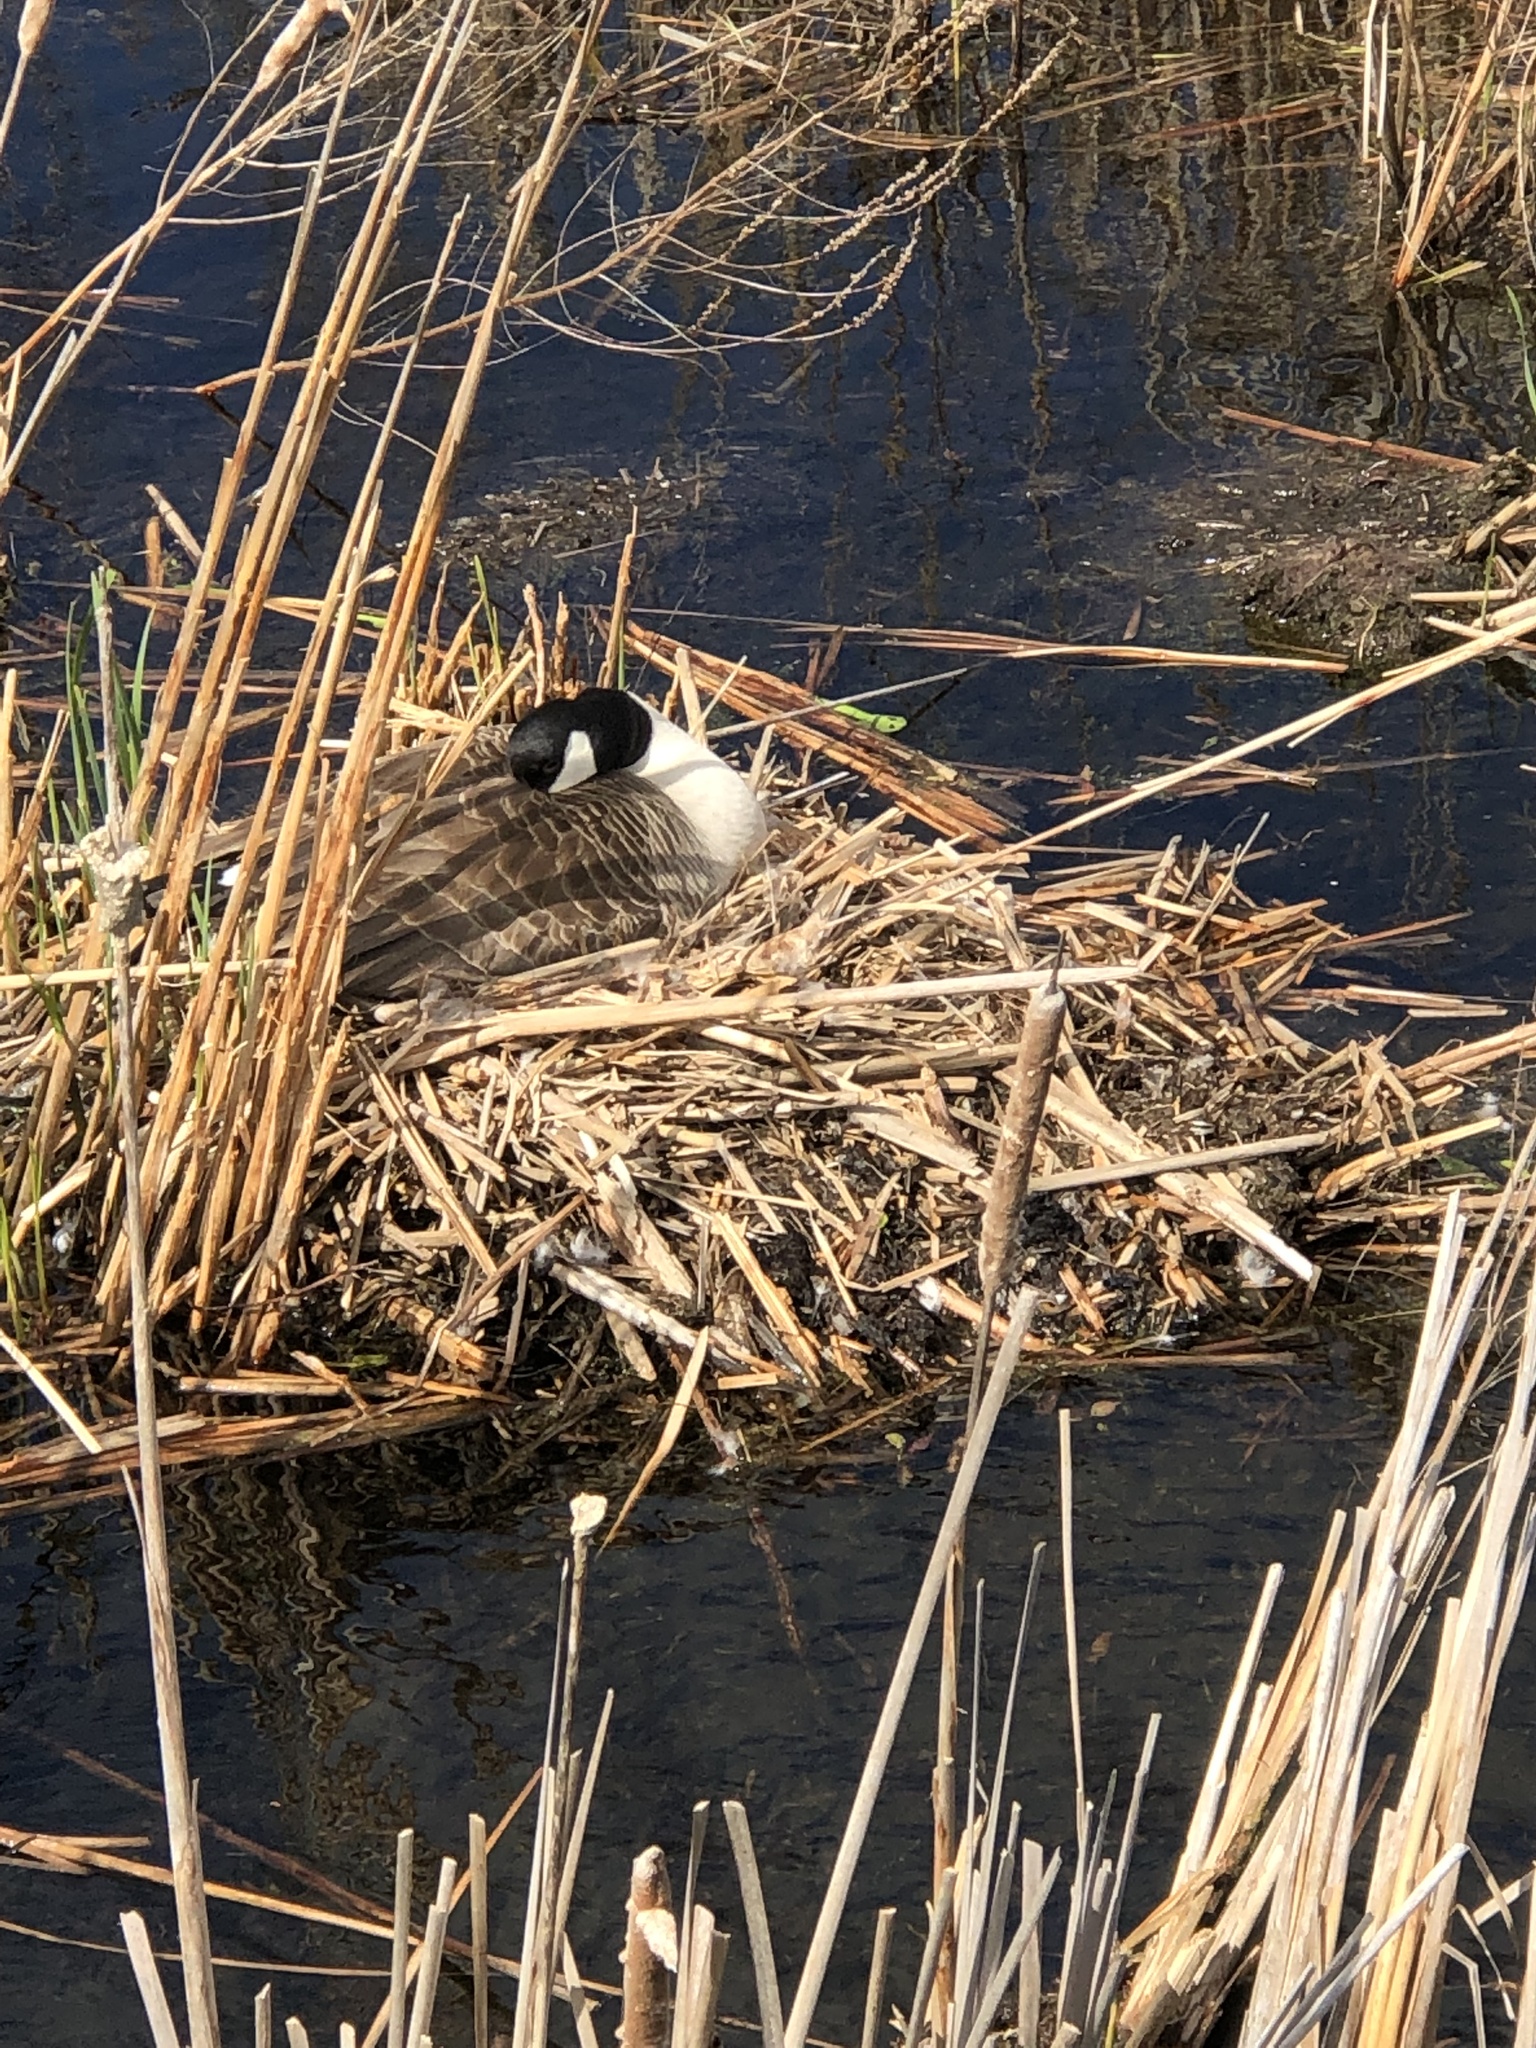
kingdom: Animalia
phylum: Chordata
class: Aves
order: Anseriformes
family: Anatidae
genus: Branta
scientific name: Branta canadensis
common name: Canada goose
